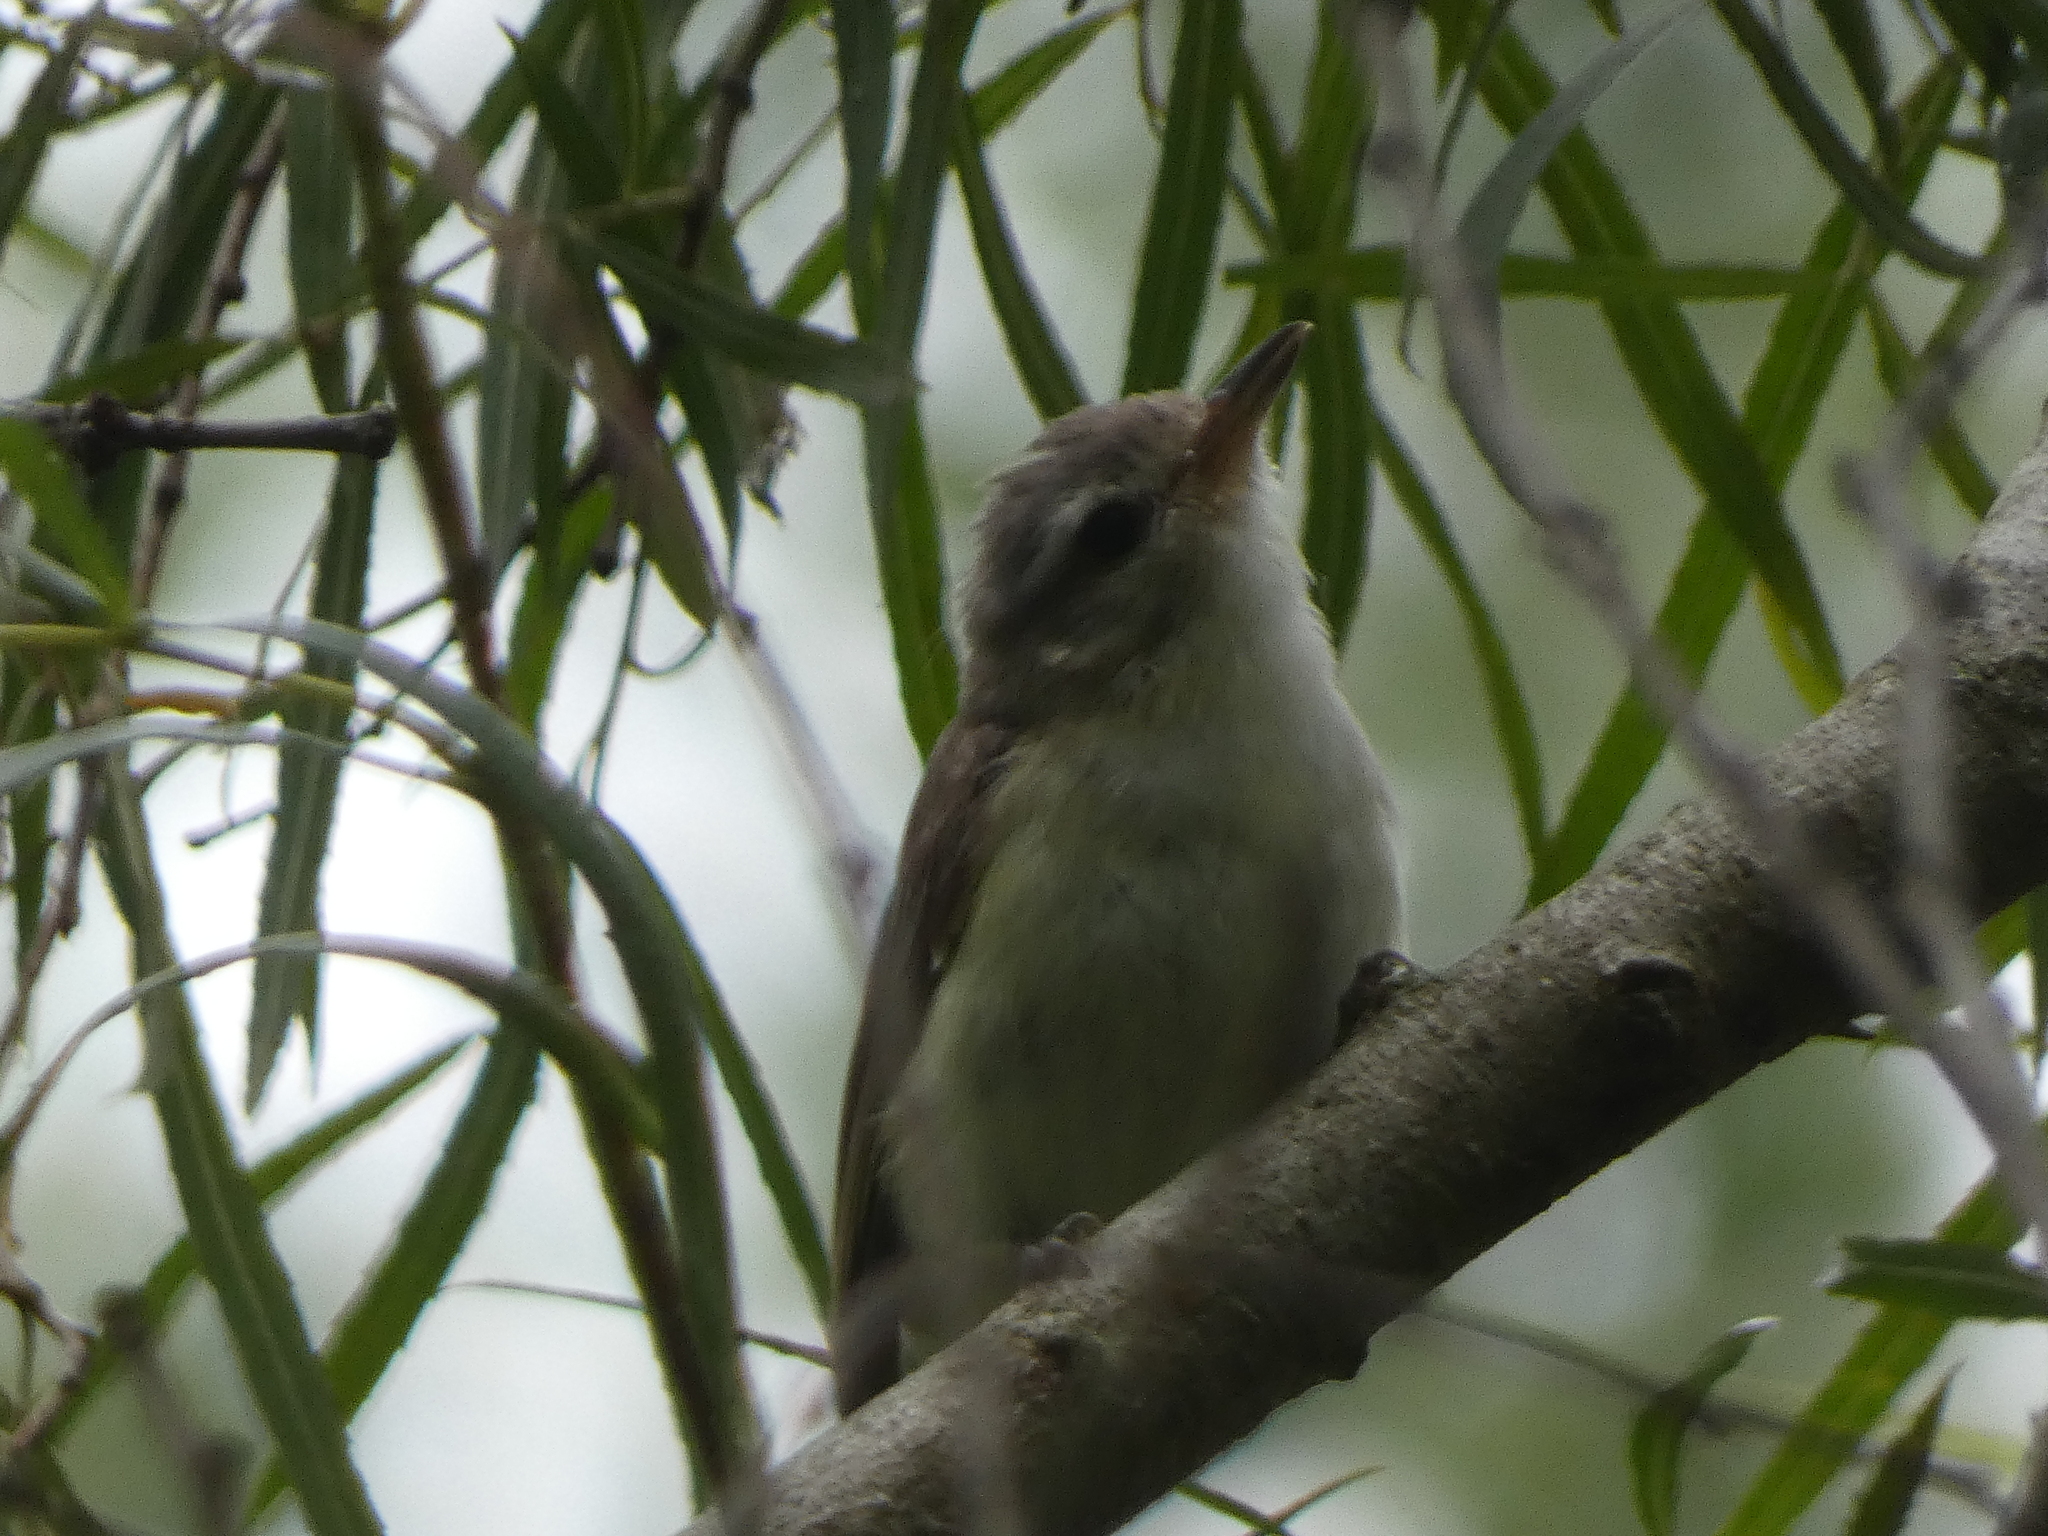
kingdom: Animalia
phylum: Chordata
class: Aves
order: Passeriformes
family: Vireonidae
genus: Vireo
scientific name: Vireo gilvus
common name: Warbling vireo
